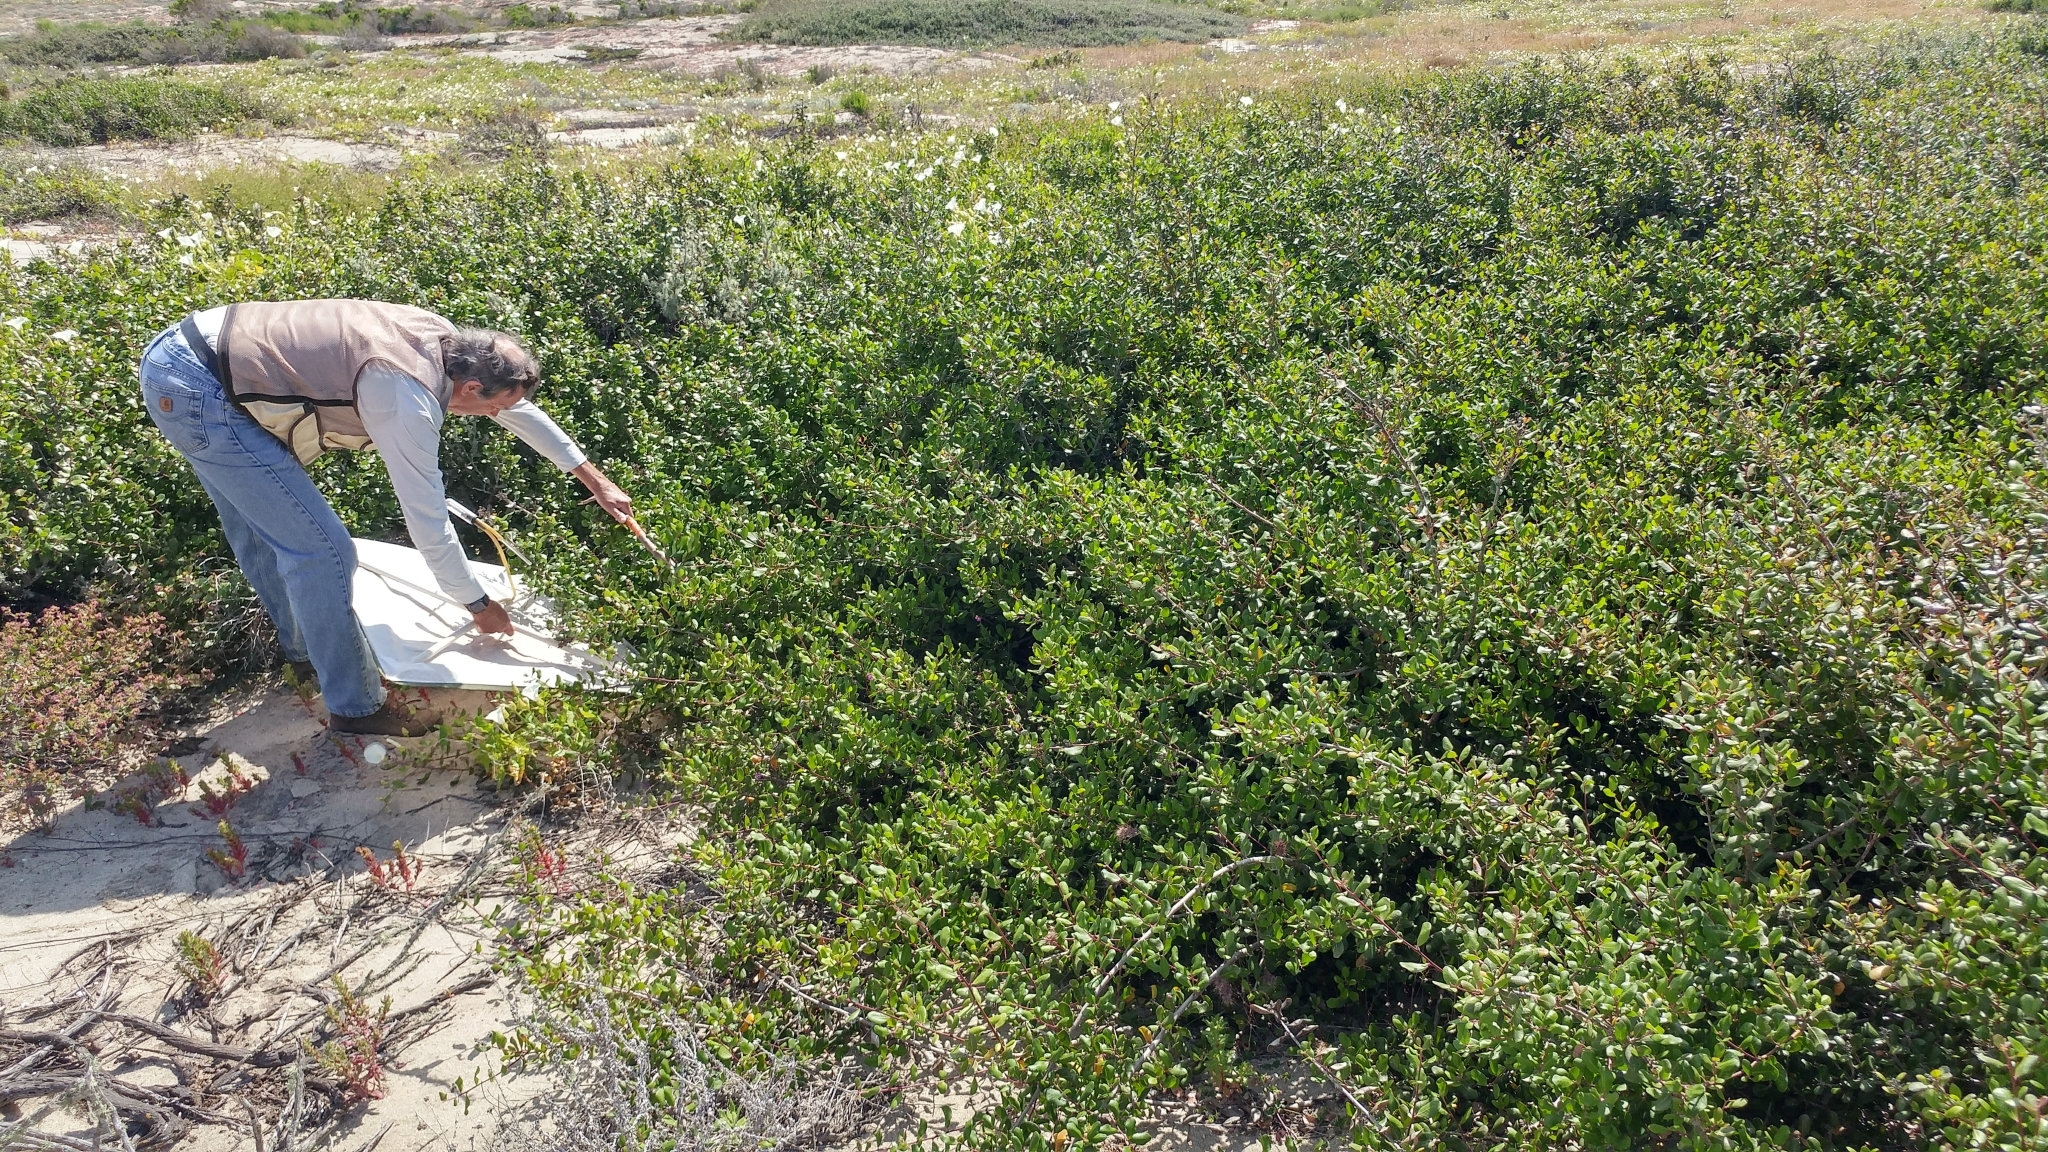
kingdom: Plantae
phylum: Tracheophyta
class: Magnoliopsida
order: Sapindales
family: Anacardiaceae
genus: Rhus
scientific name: Rhus integrifolia
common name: Lemonade sumac
